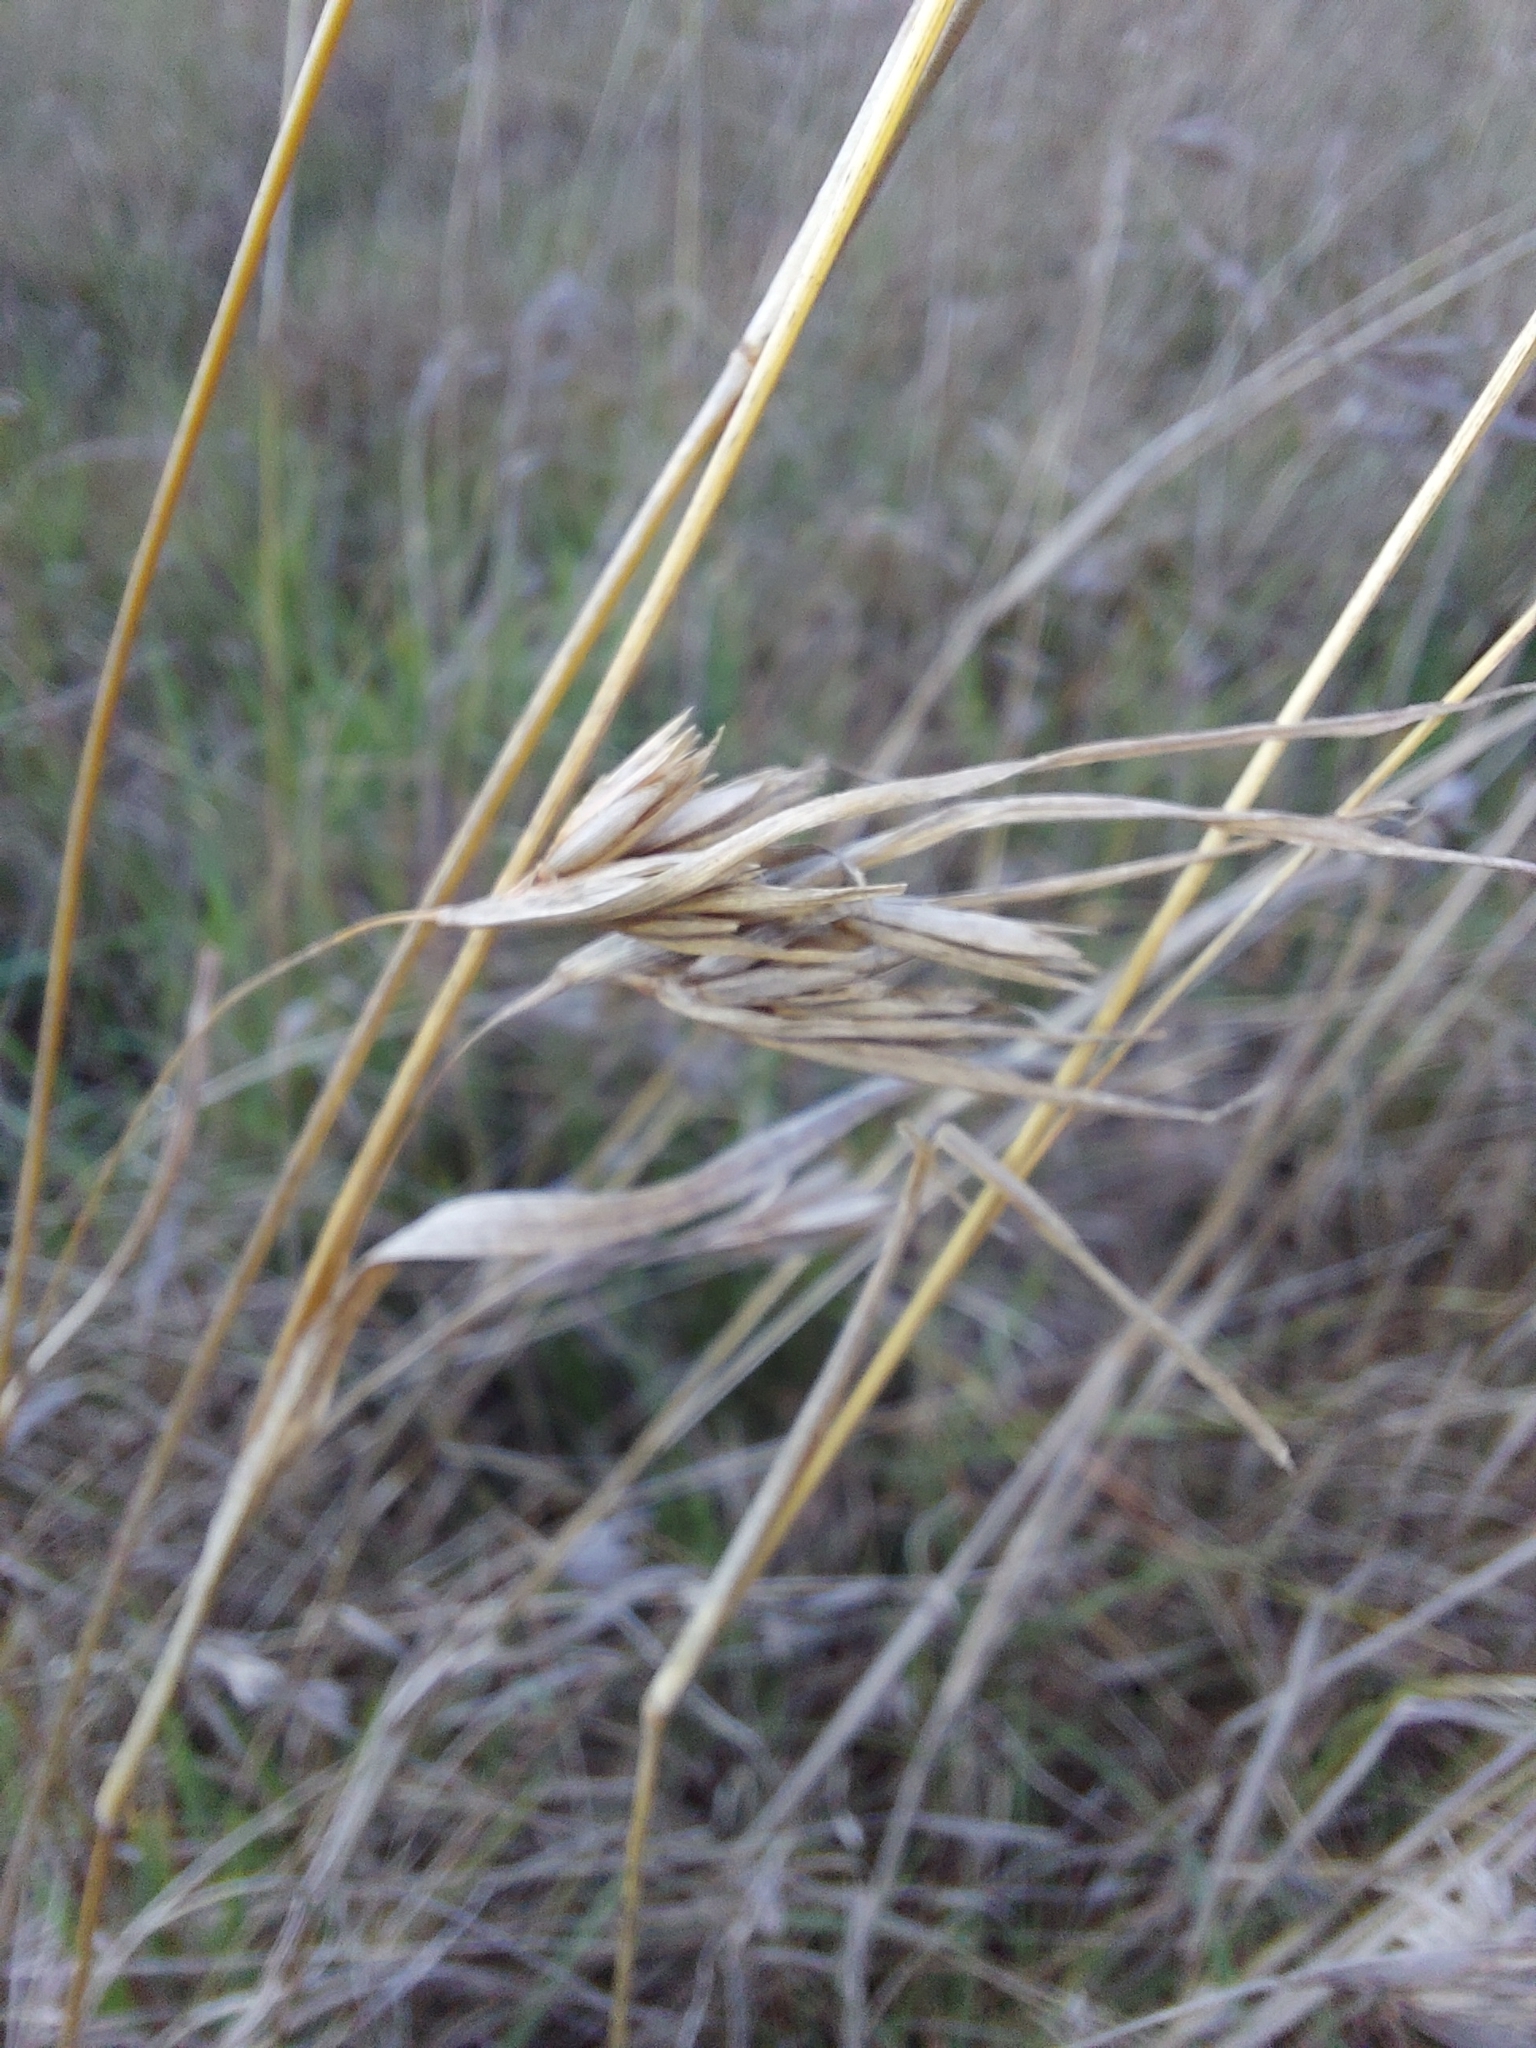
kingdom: Plantae
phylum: Tracheophyta
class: Liliopsida
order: Poales
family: Poaceae
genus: Themeda
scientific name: Themeda triandra
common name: Kangaroo grass
